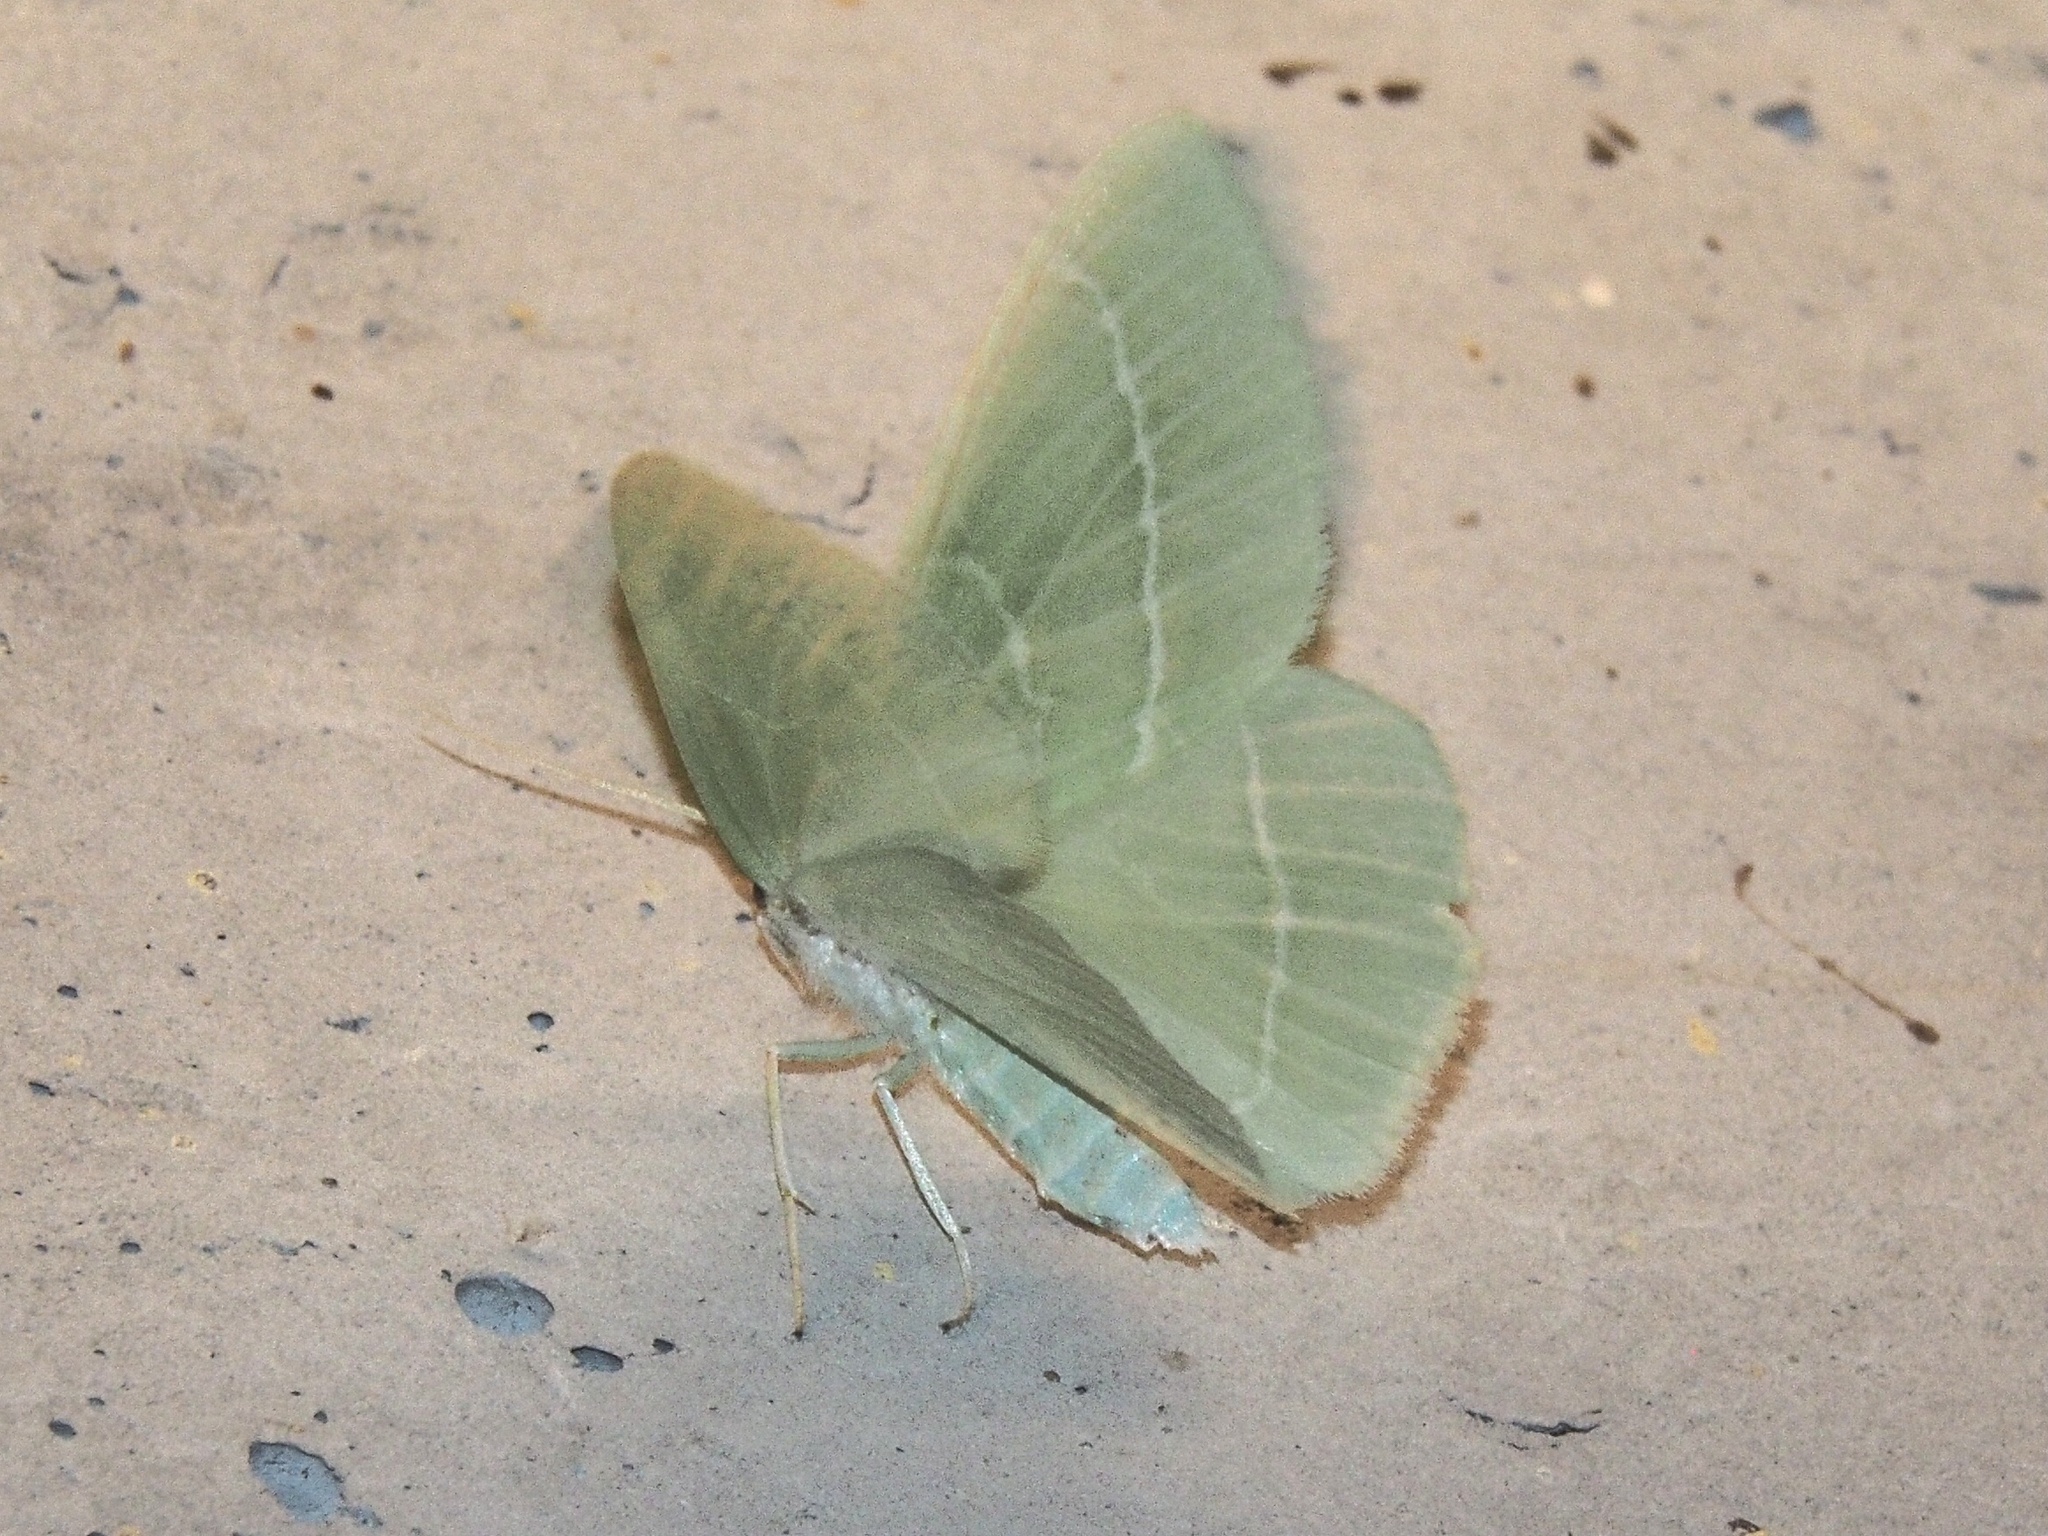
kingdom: Animalia
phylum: Arthropoda
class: Insecta
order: Lepidoptera
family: Geometridae
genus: Hemistola
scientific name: Hemistola chrysoprasaria
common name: Small emerald
